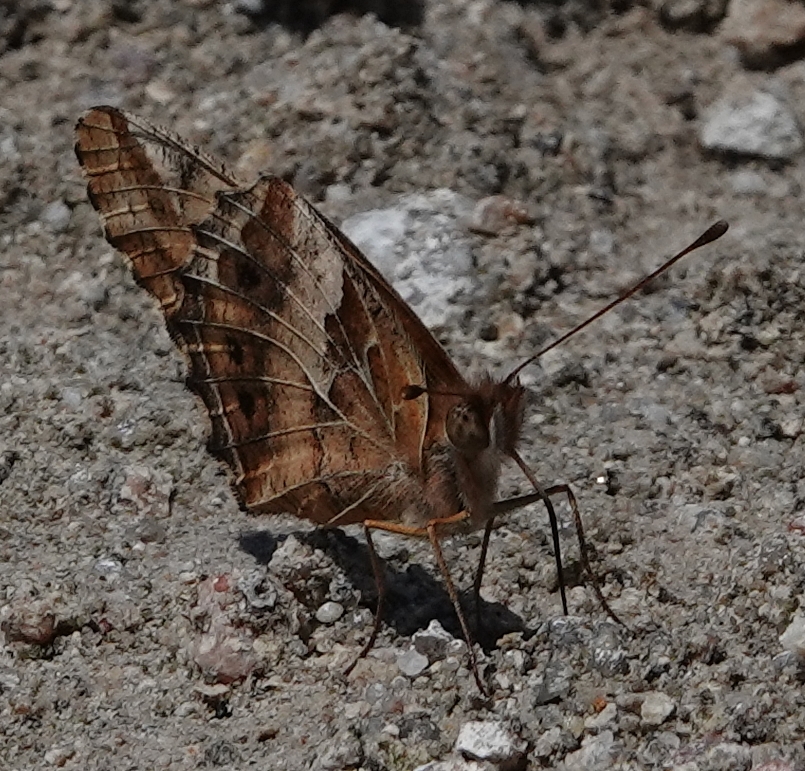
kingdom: Animalia
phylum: Arthropoda
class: Insecta
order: Lepidoptera
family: Nymphalidae
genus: Euptoieta
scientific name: Euptoieta claudia
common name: Variegated fritillary
